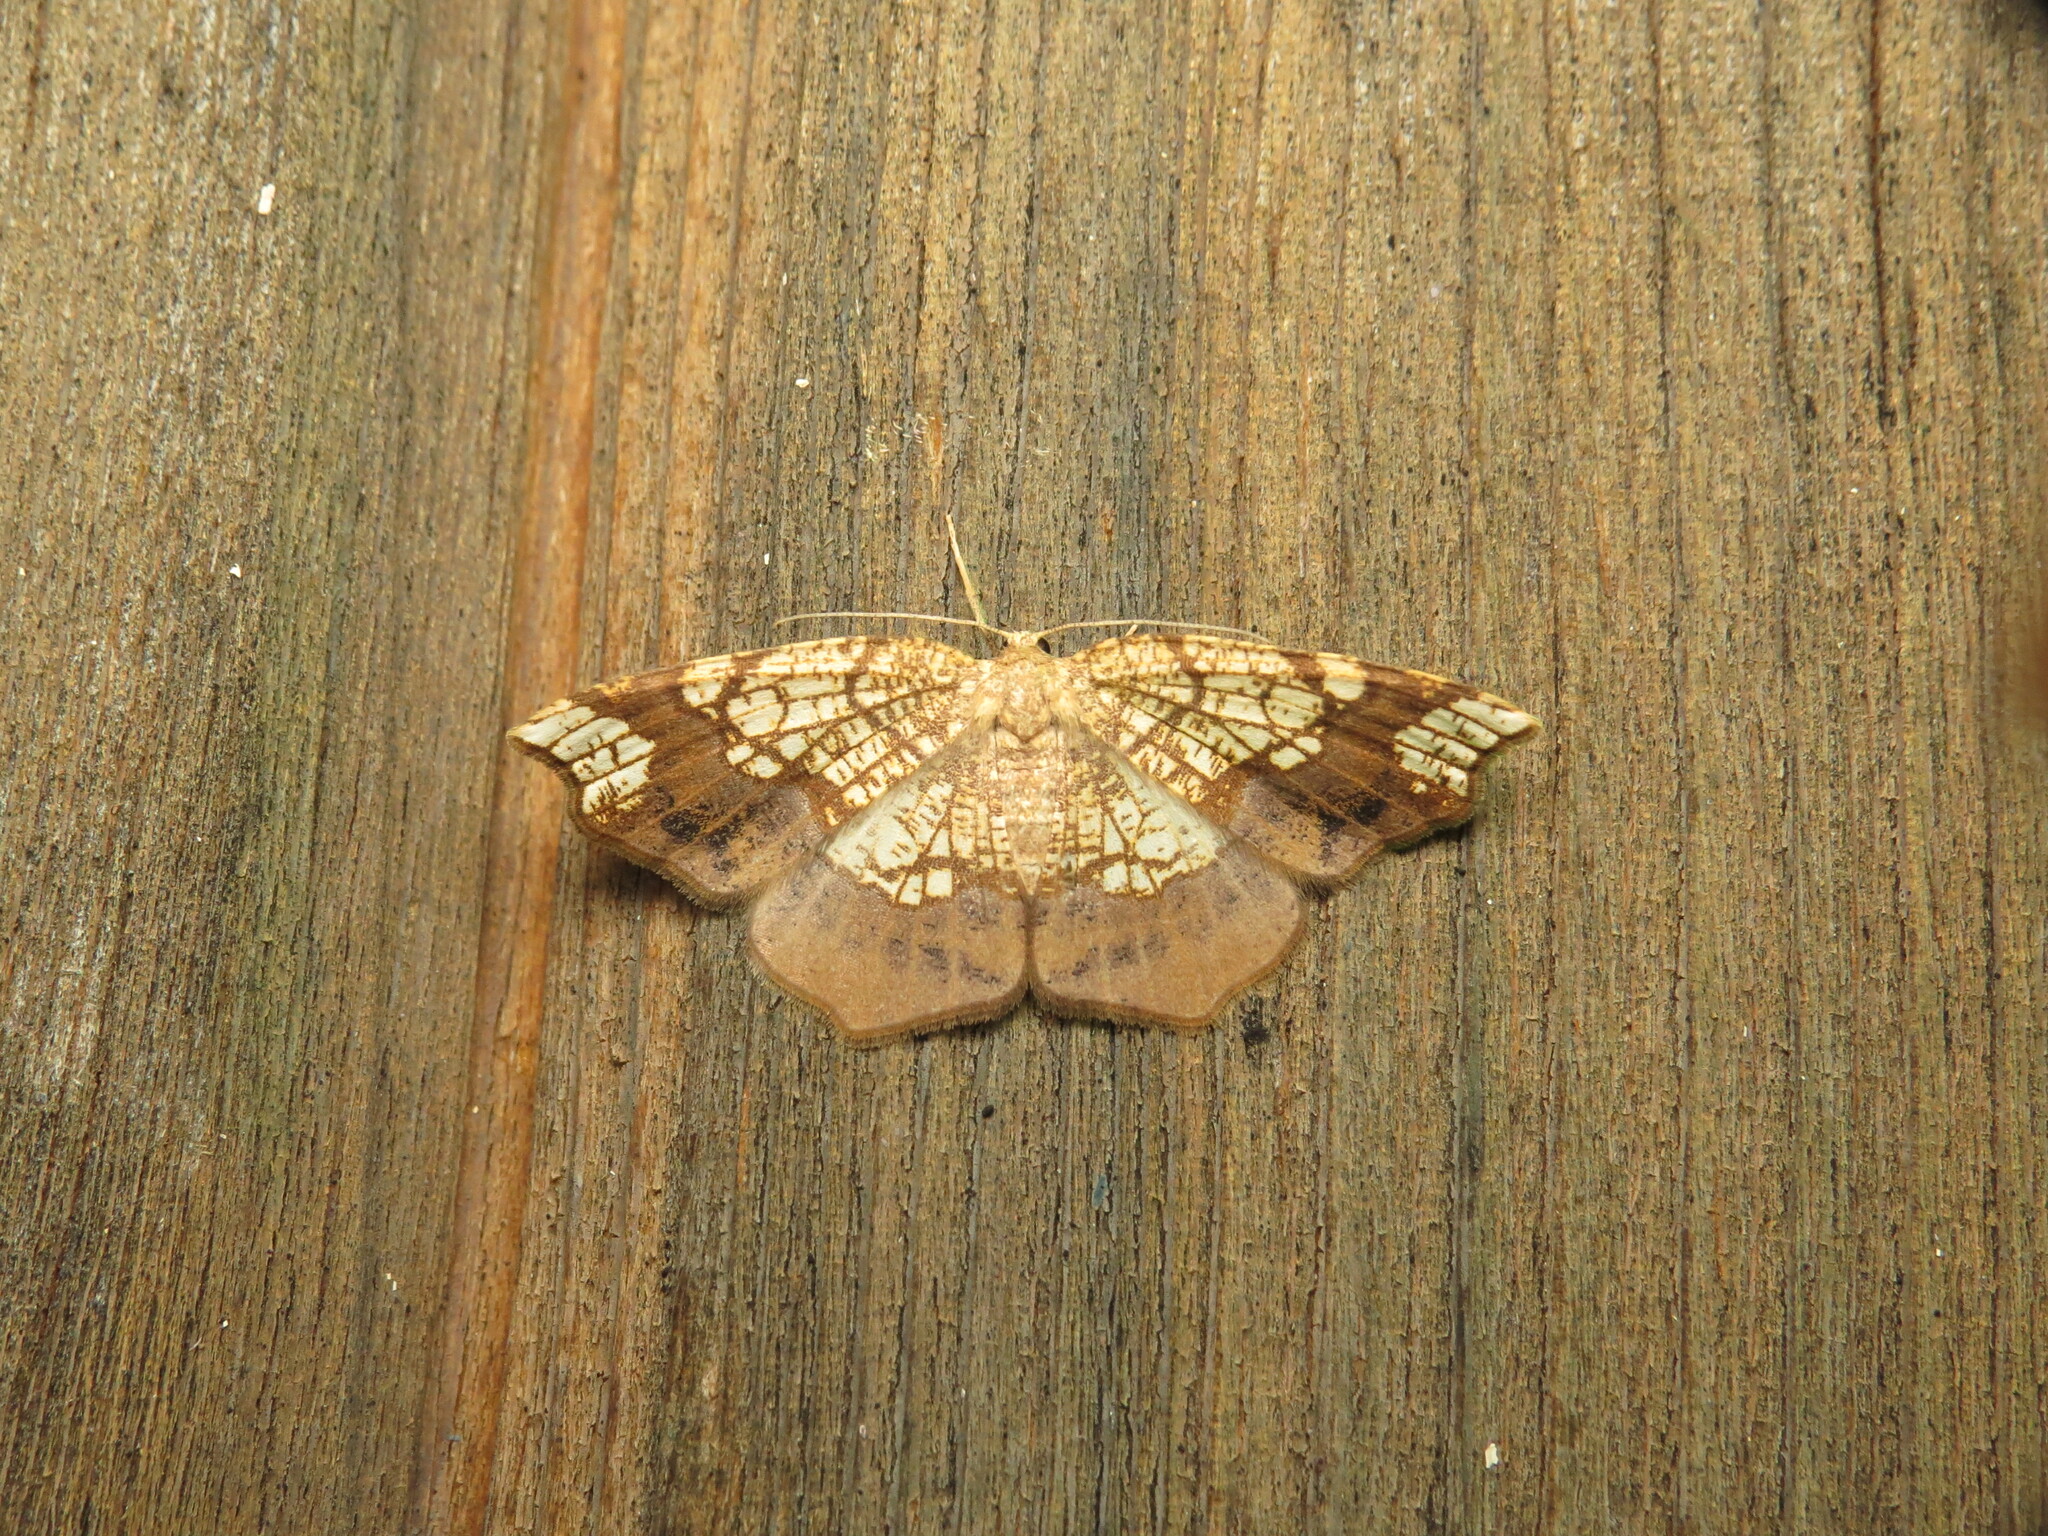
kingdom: Animalia
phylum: Arthropoda
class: Insecta
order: Lepidoptera
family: Geometridae
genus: Nematocampa
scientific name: Nematocampa resistaria
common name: Horned spanworm moth
